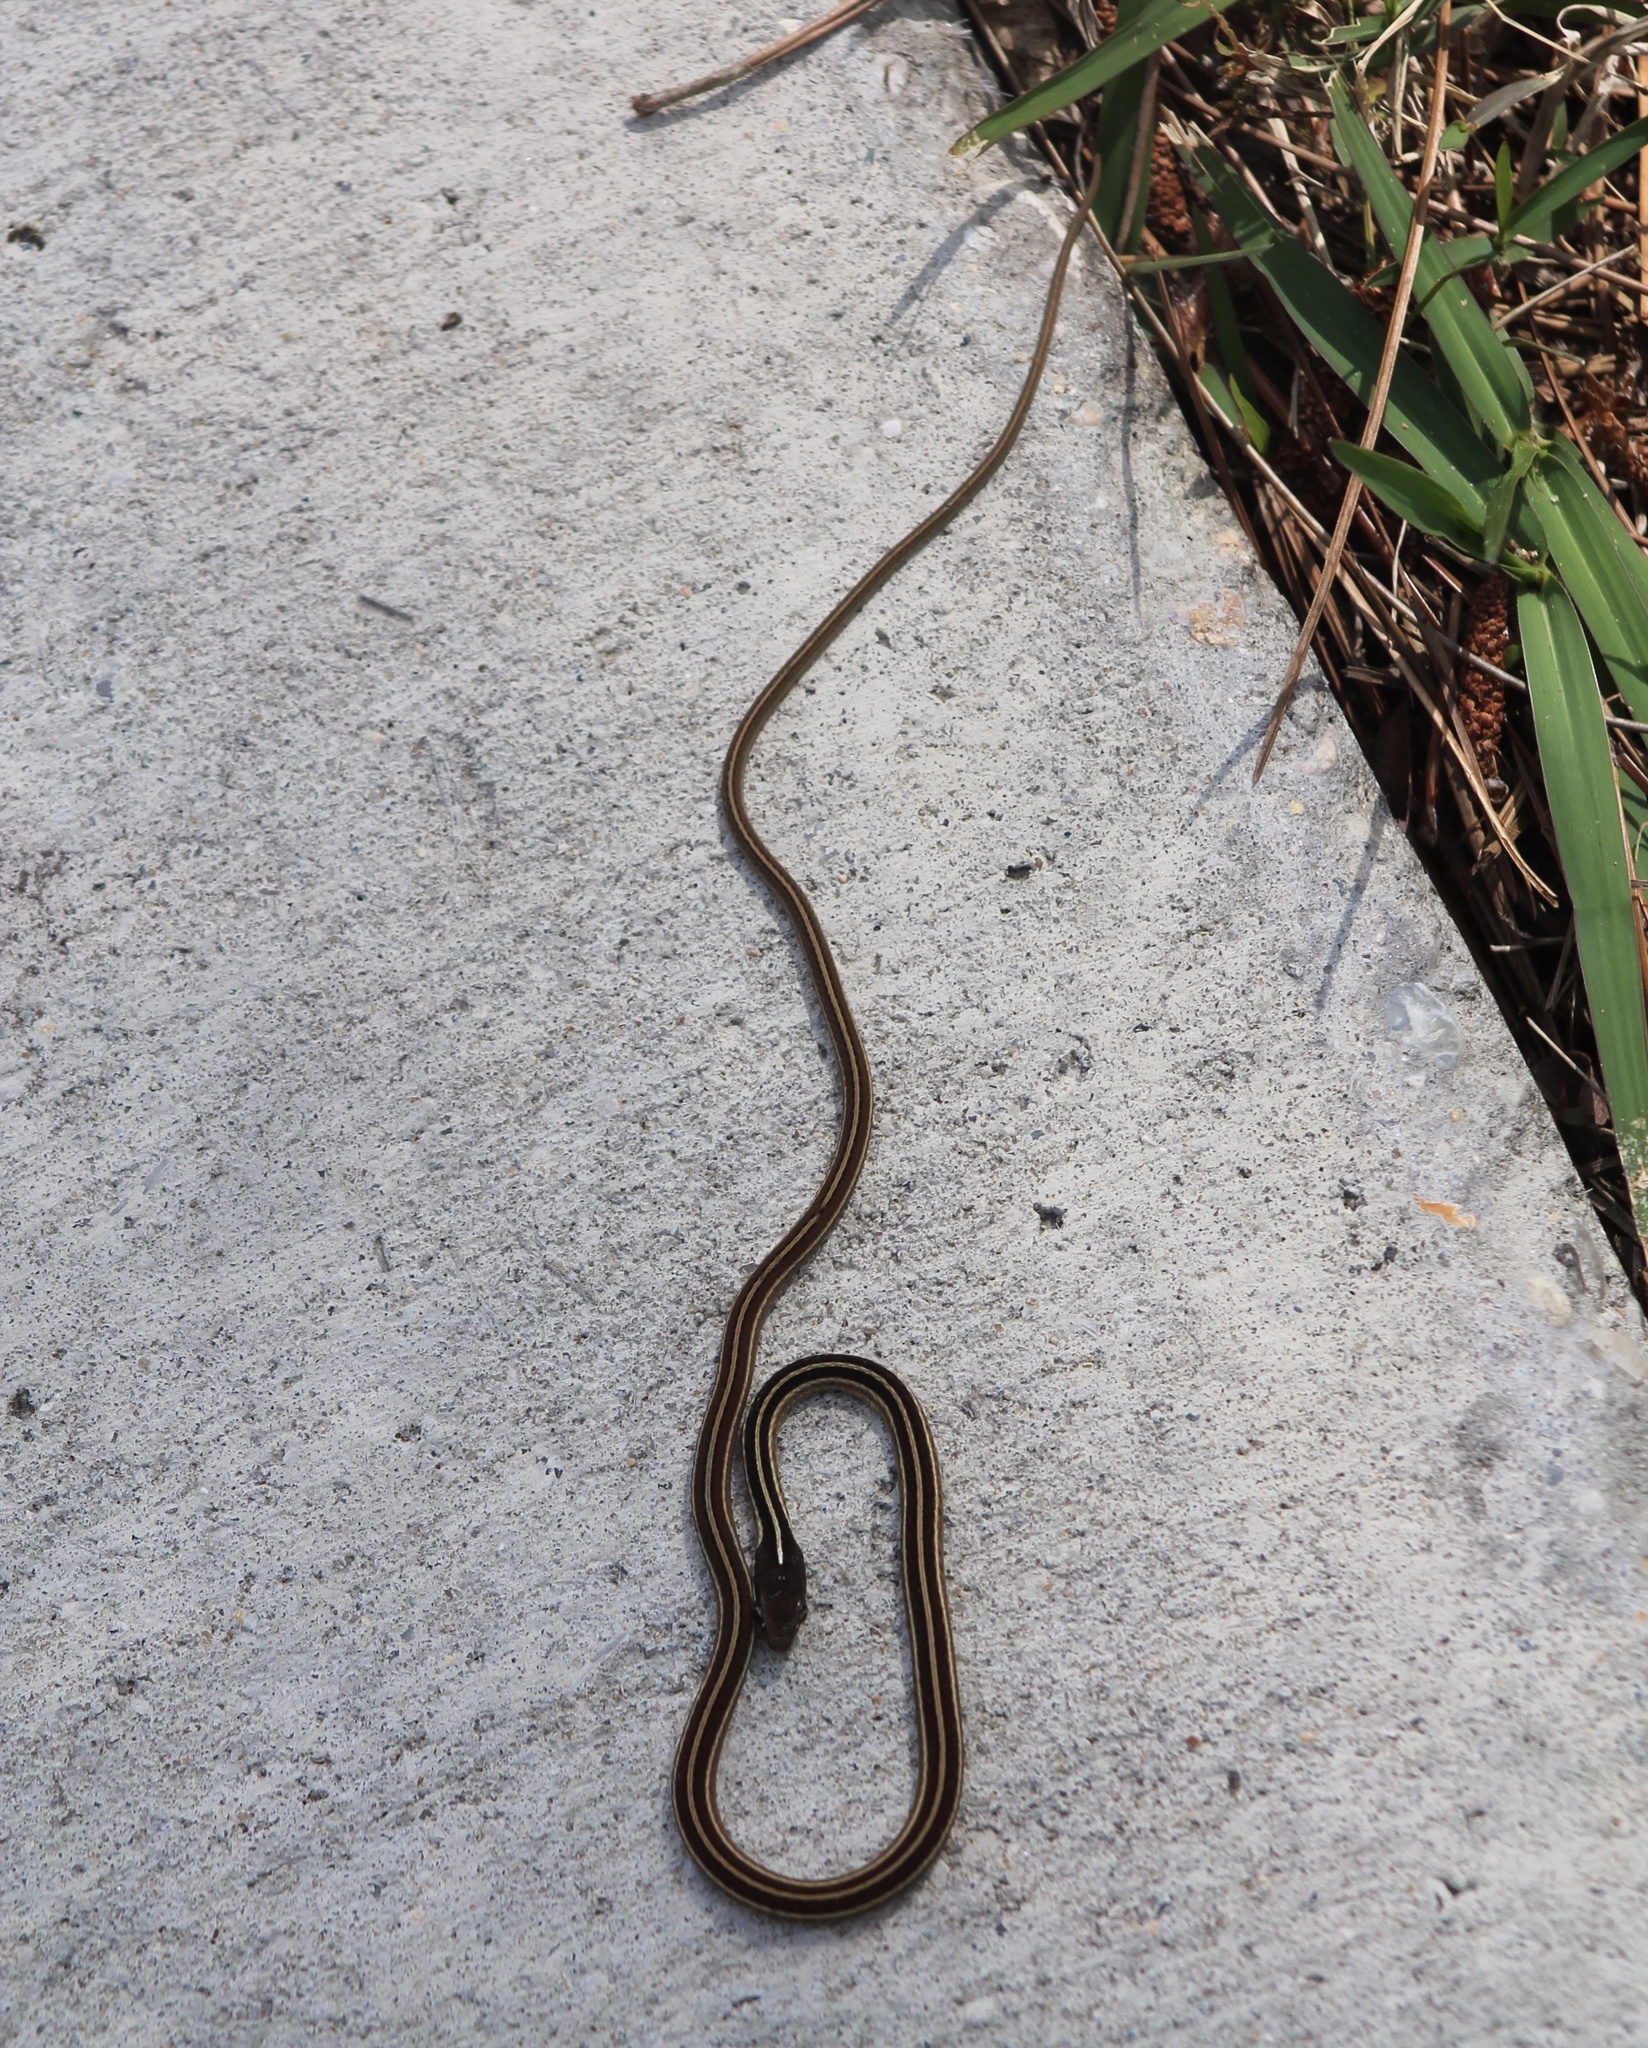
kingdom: Animalia
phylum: Chordata
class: Squamata
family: Colubridae
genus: Thamnophis
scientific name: Thamnophis saurita
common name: Eastern ribbonsnake
